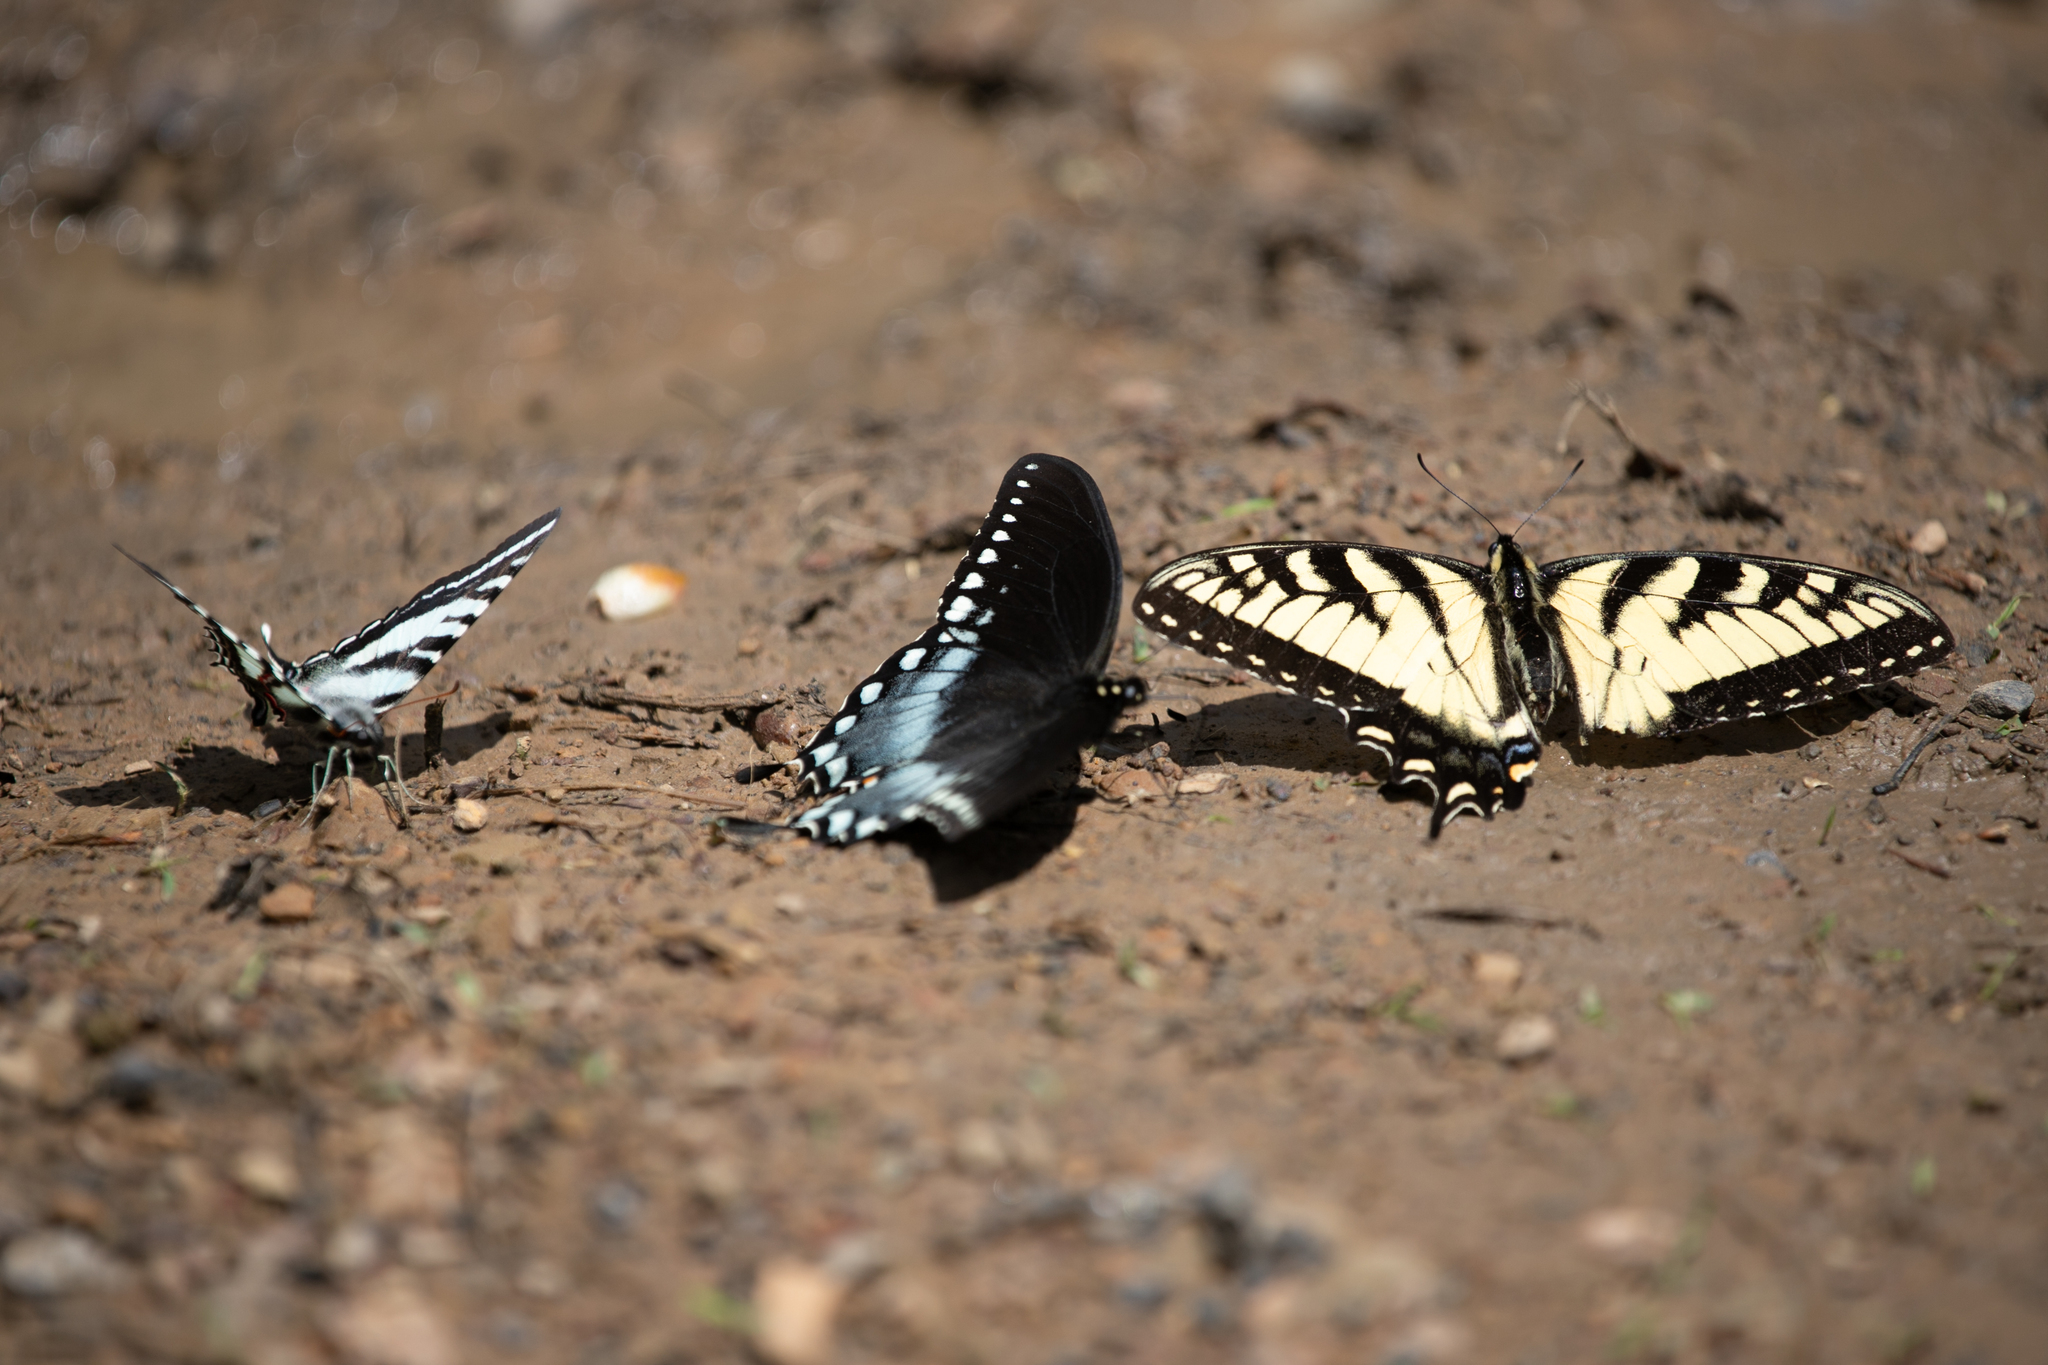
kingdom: Animalia
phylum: Arthropoda
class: Insecta
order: Lepidoptera
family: Papilionidae
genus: Papilio
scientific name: Papilio troilus
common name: Spicebush swallowtail
